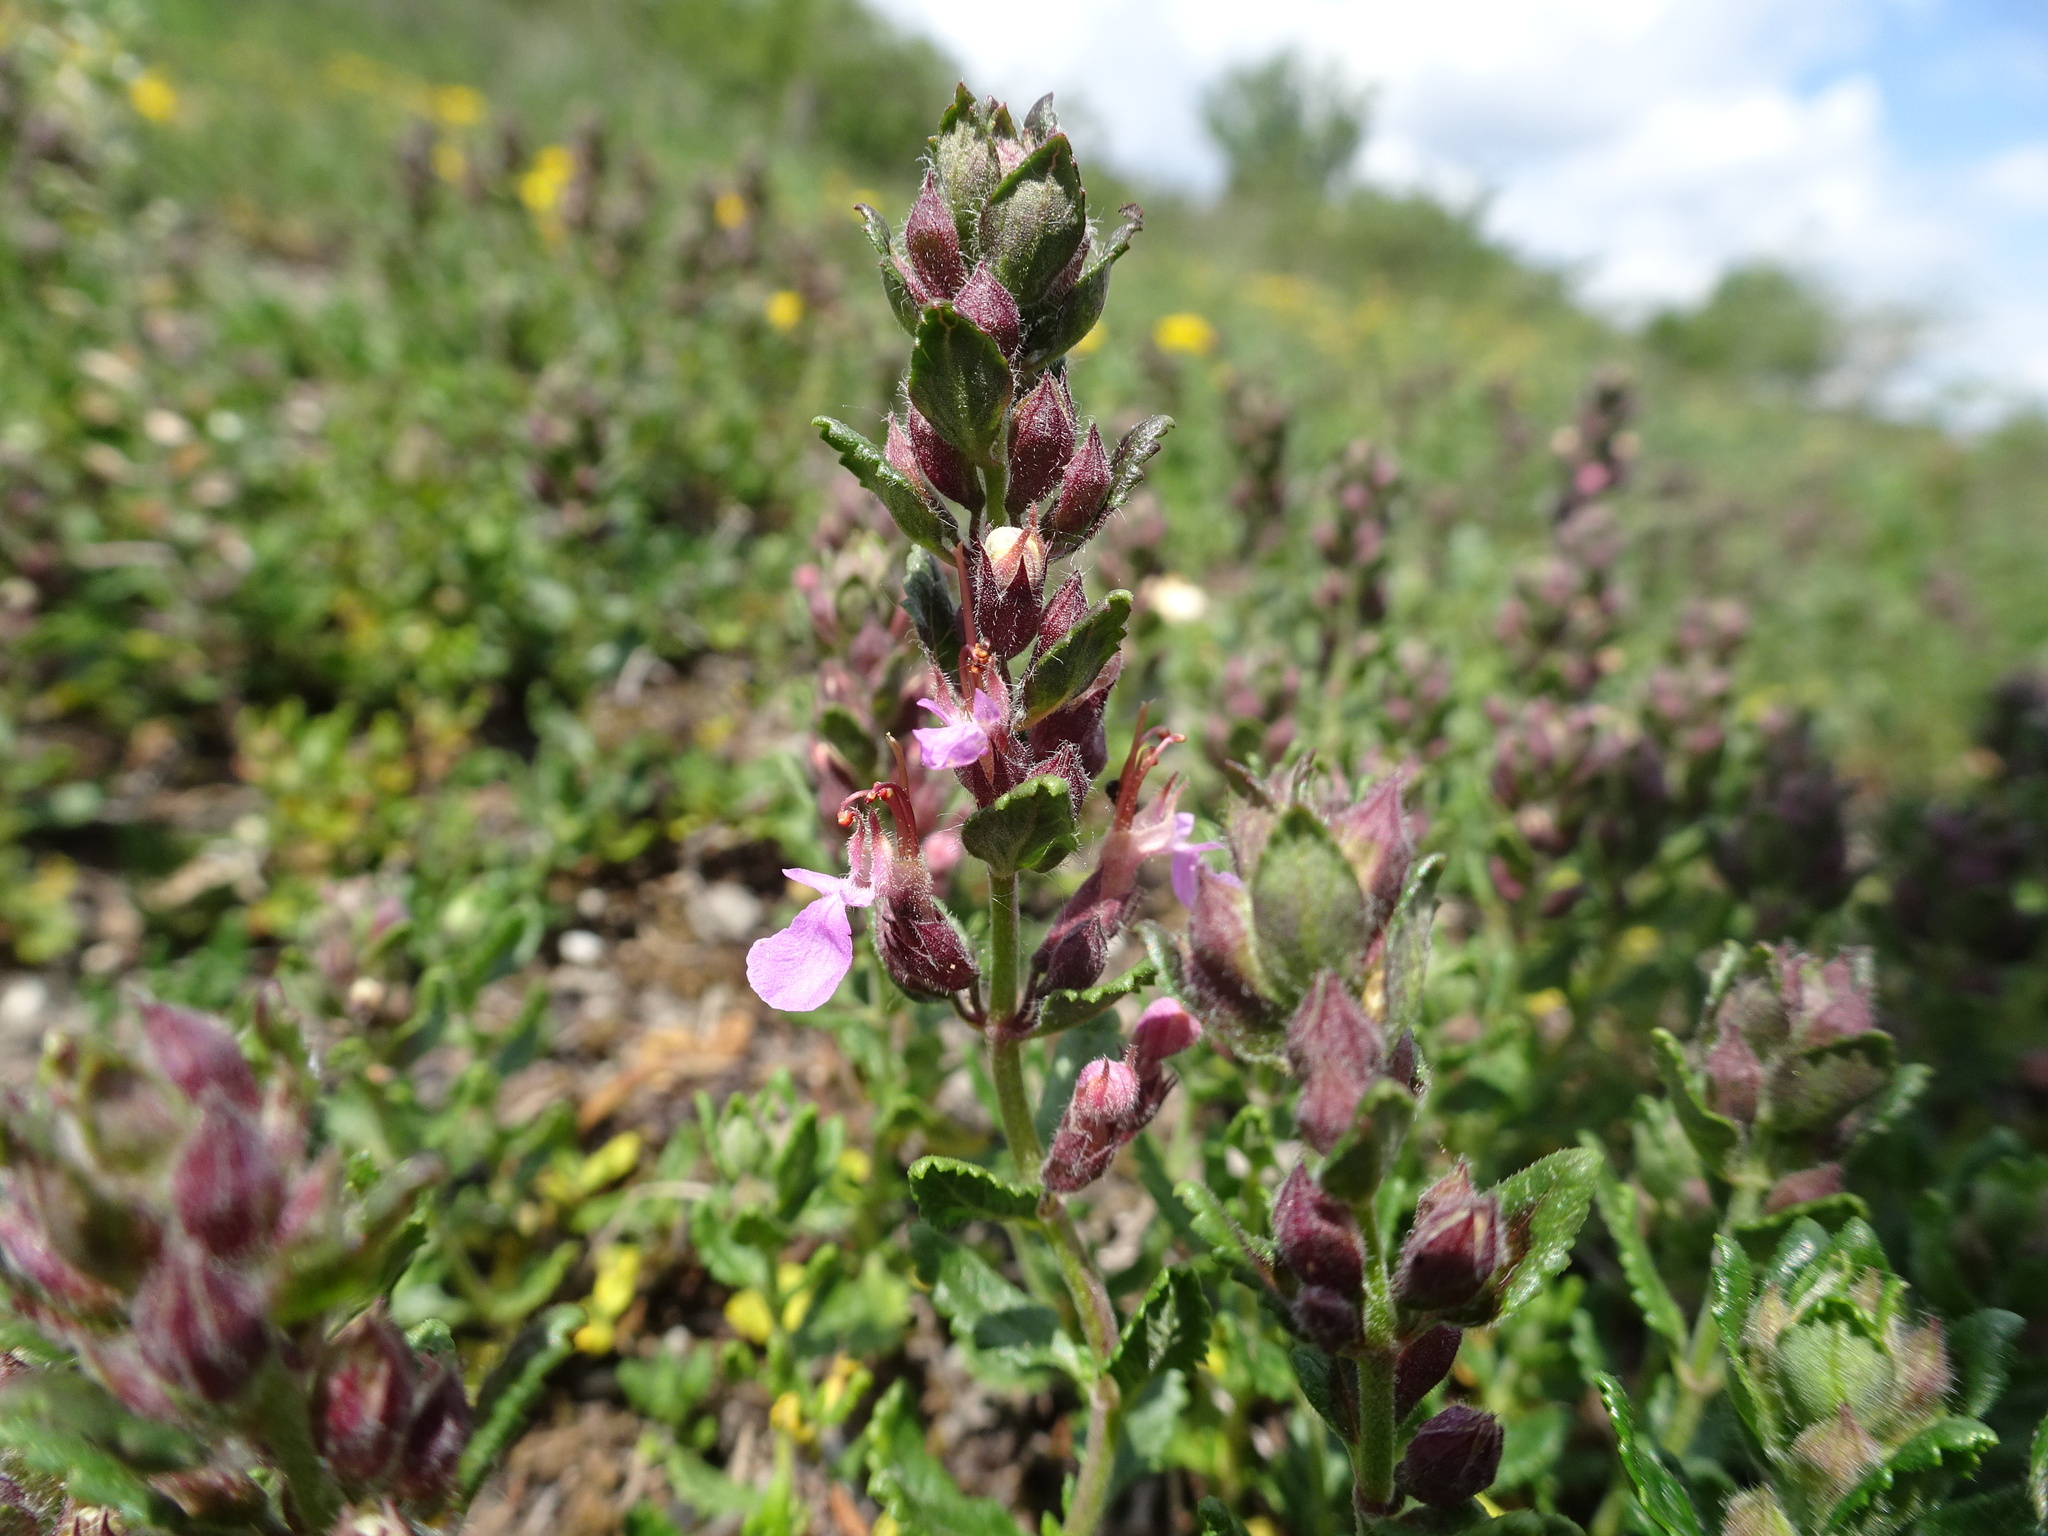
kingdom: Plantae
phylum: Tracheophyta
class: Magnoliopsida
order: Lamiales
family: Lamiaceae
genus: Teucrium
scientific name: Teucrium chamaedrys
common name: Wall germander
